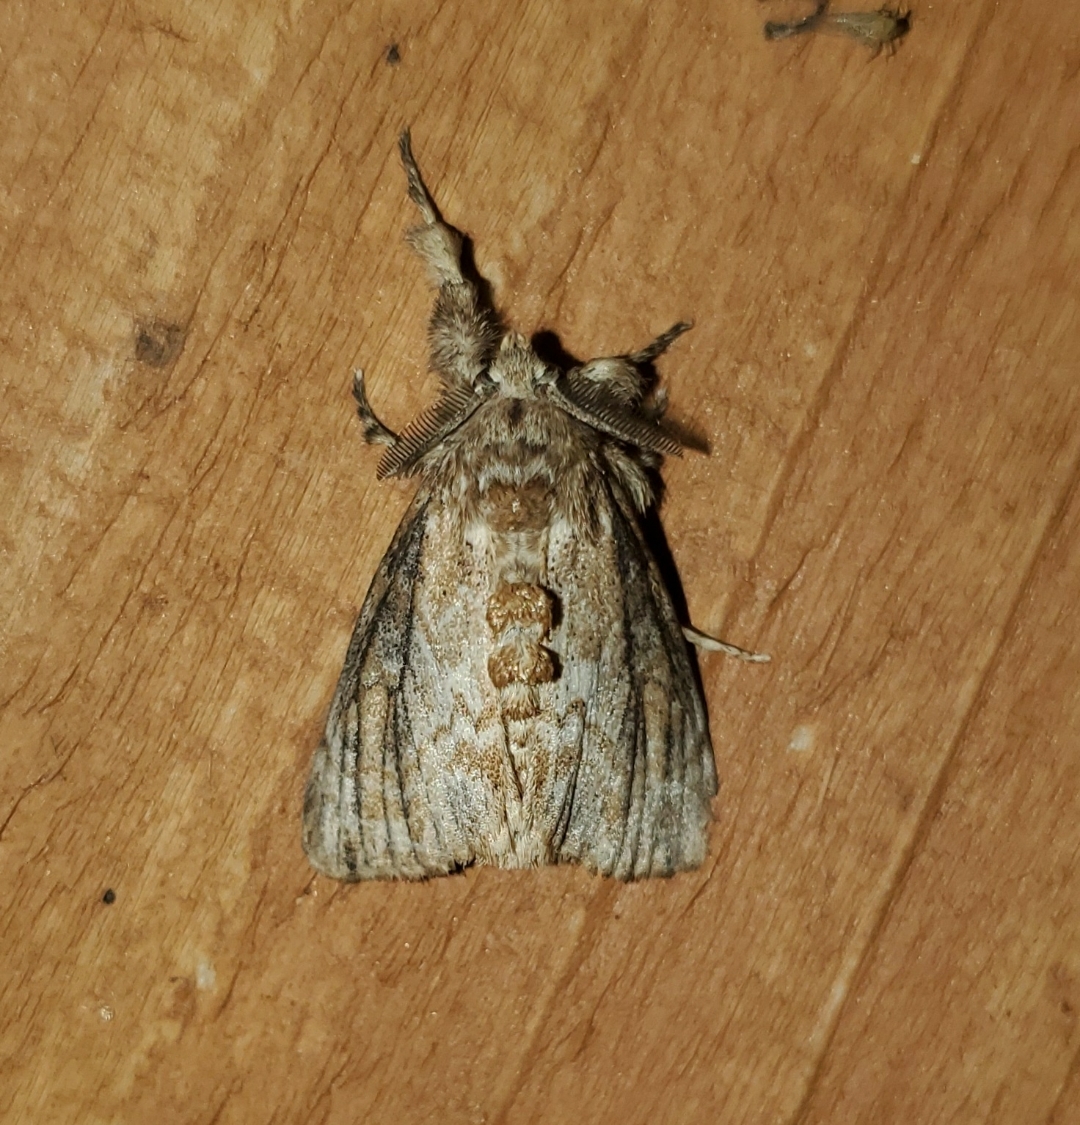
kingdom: Animalia
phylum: Arthropoda
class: Insecta
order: Lepidoptera
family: Erebidae
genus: Dasychira
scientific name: Dasychira atrivenosa
